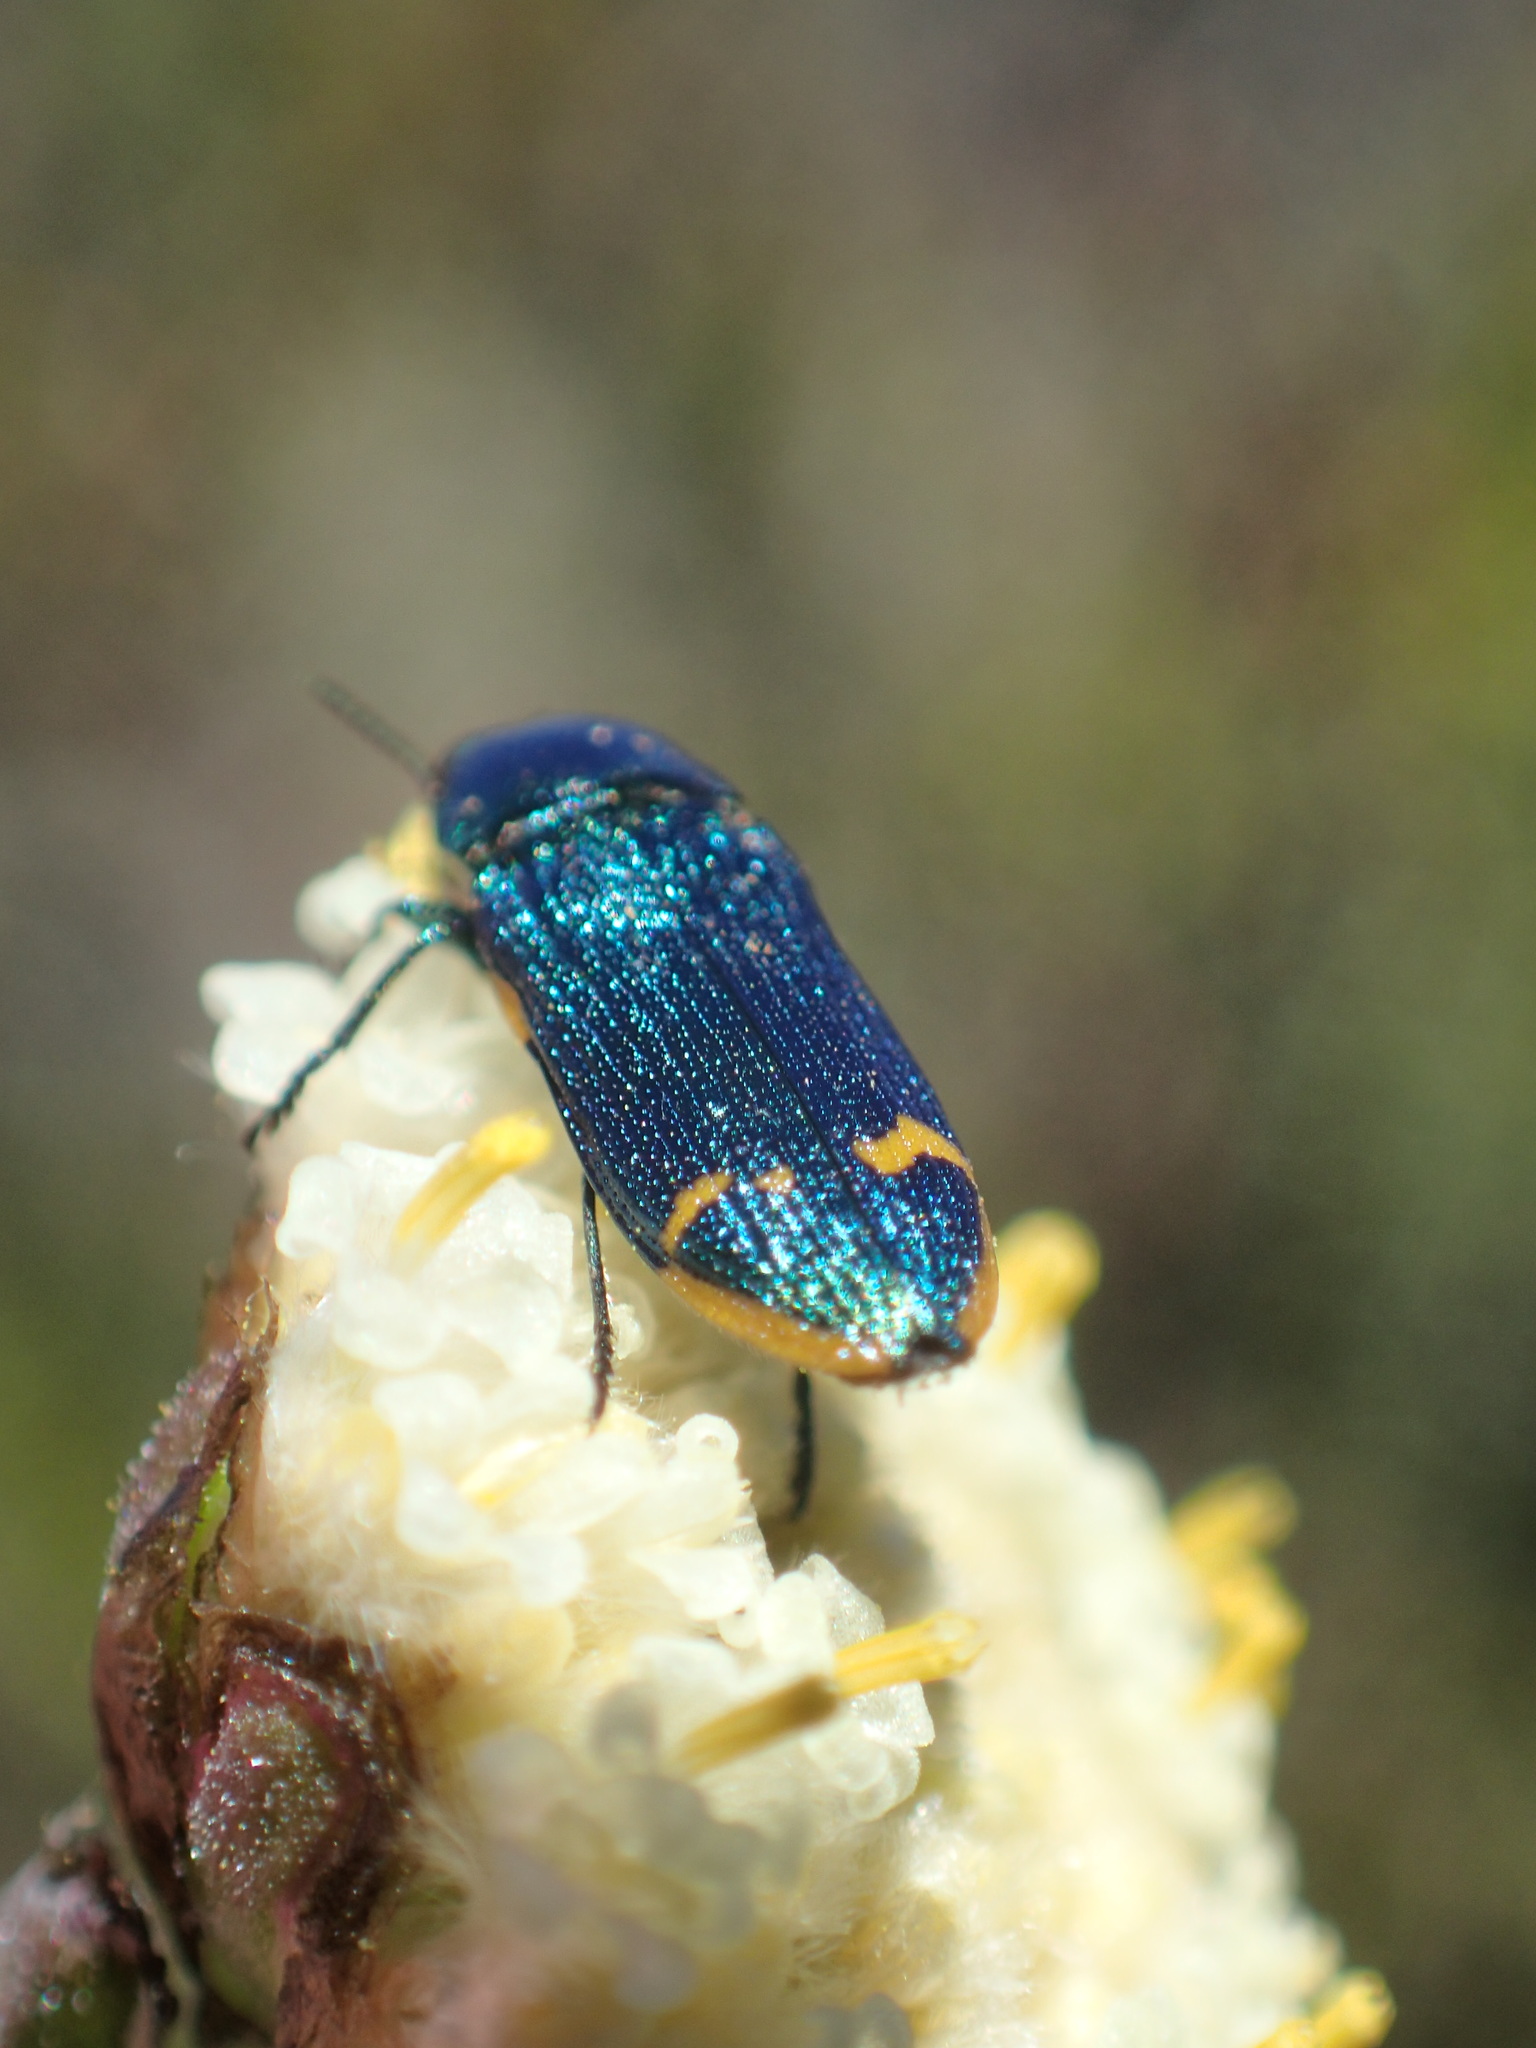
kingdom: Animalia
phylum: Arthropoda
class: Insecta
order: Coleoptera
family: Buprestidae
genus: Castiarina
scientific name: Castiarina leai
